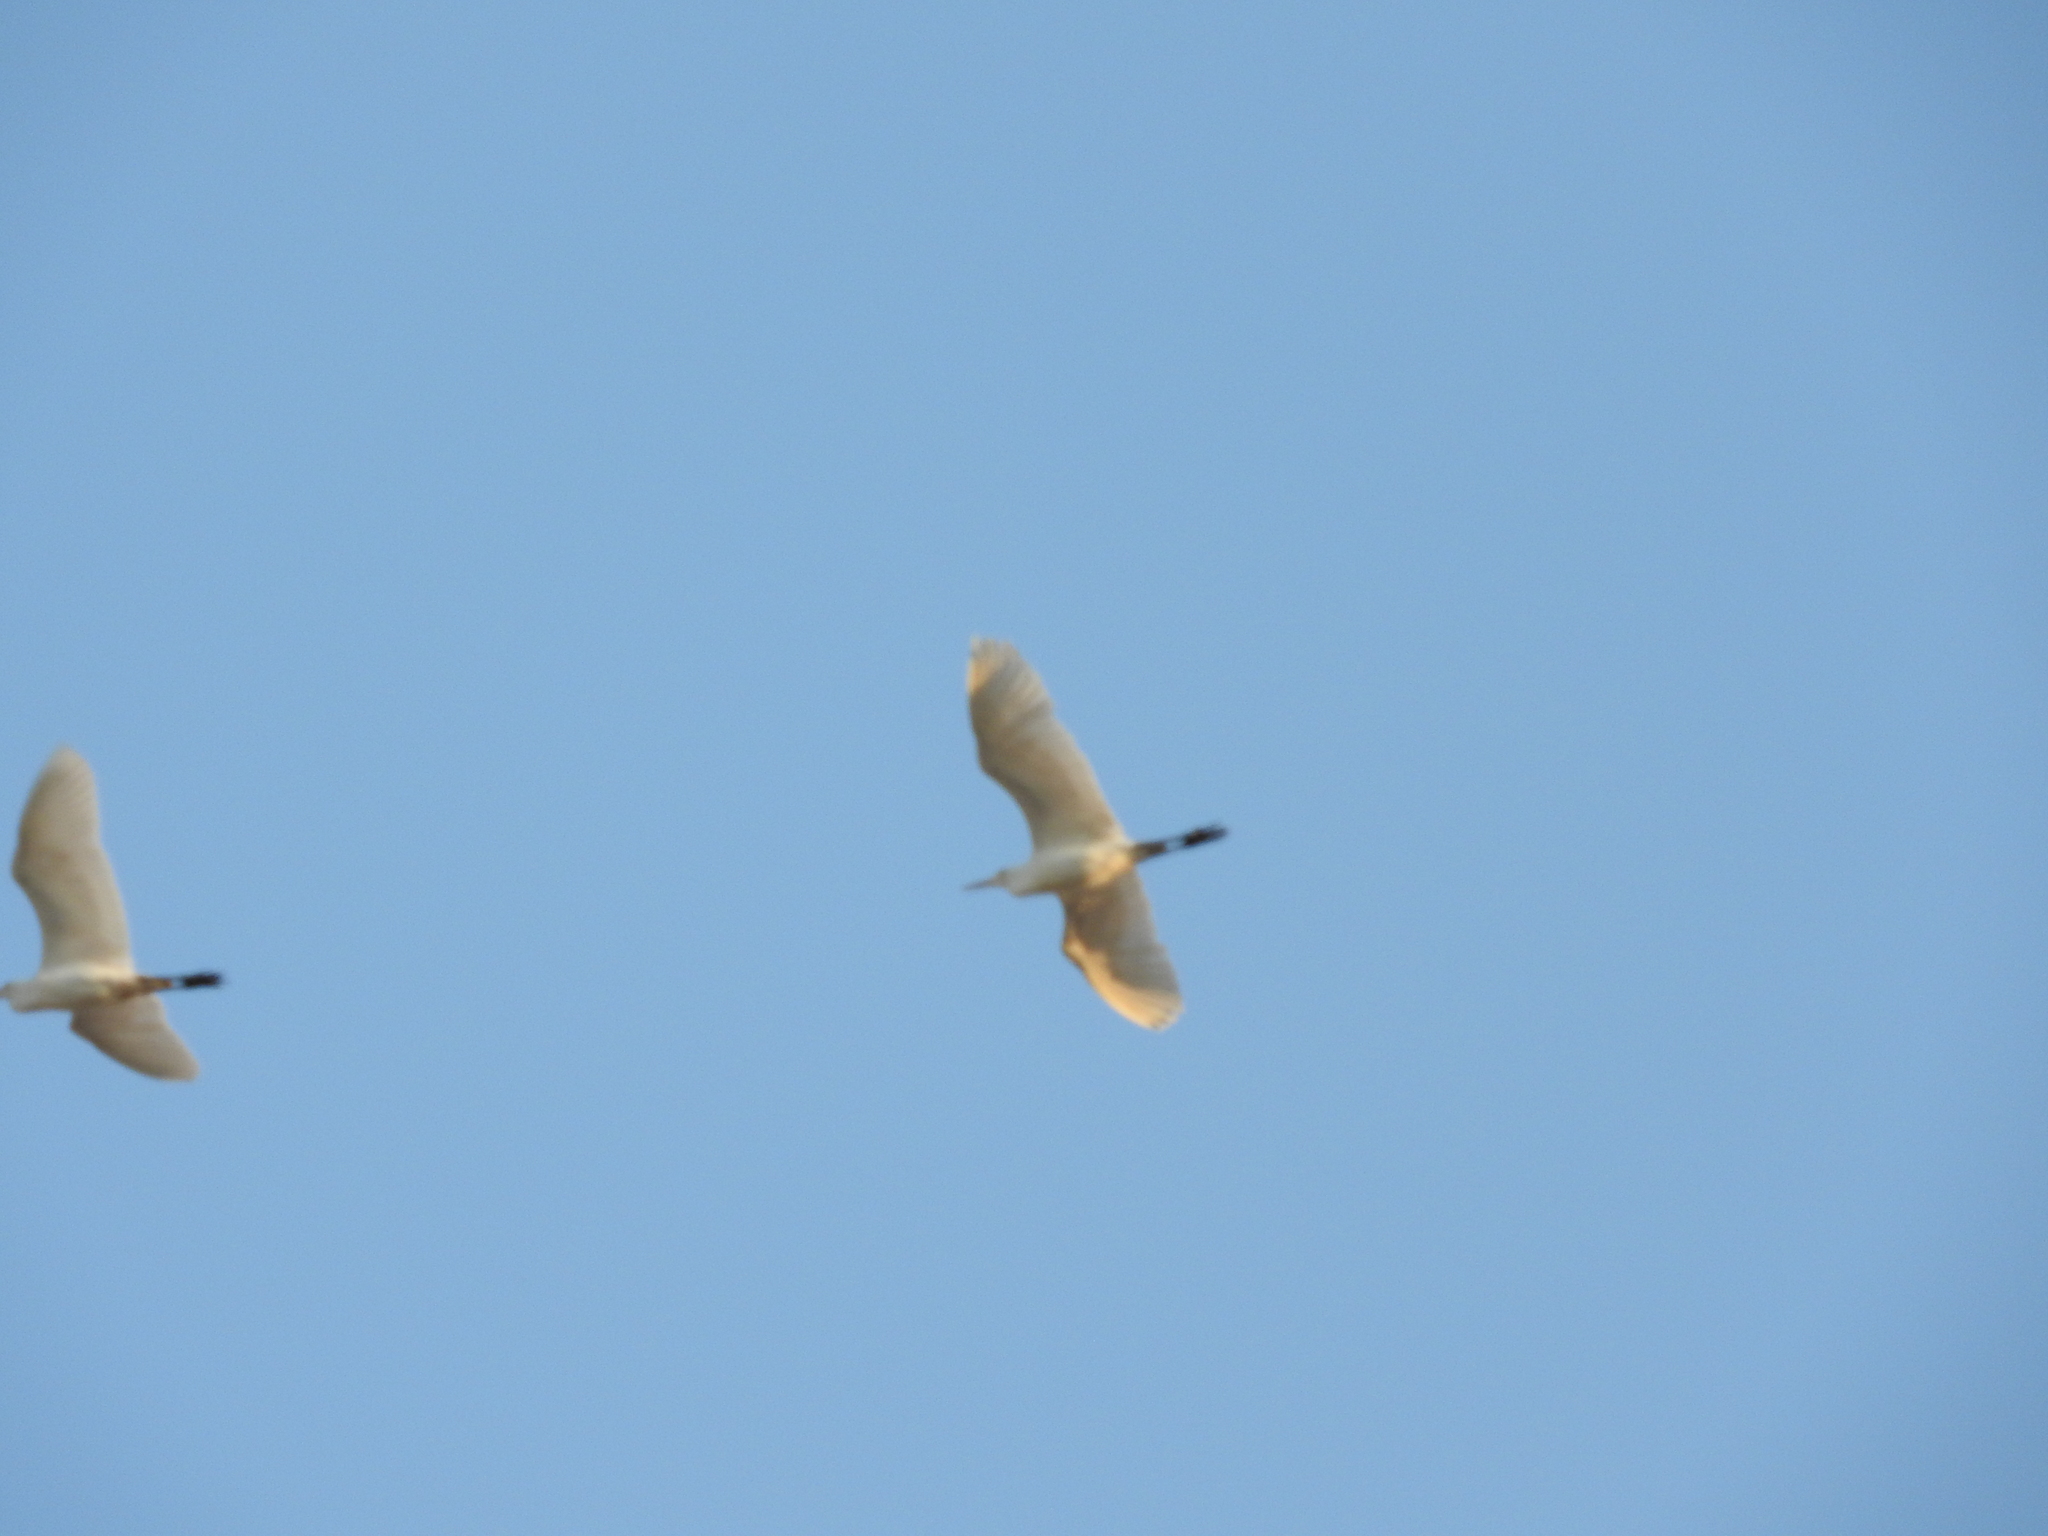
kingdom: Animalia
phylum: Chordata
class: Aves
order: Pelecaniformes
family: Ardeidae
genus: Bubulcus
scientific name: Bubulcus ibis
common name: Cattle egret
